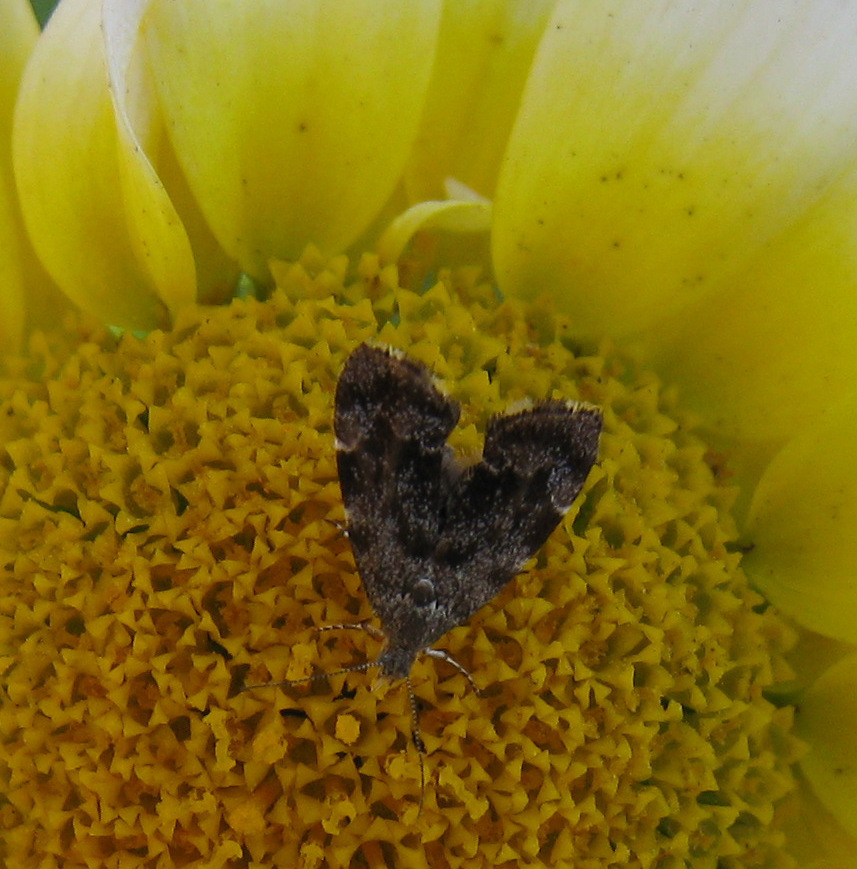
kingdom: Animalia
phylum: Arthropoda
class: Insecta
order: Lepidoptera
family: Choreutidae
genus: Anthophila
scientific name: Anthophila fabriciana
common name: Nettle-tap
